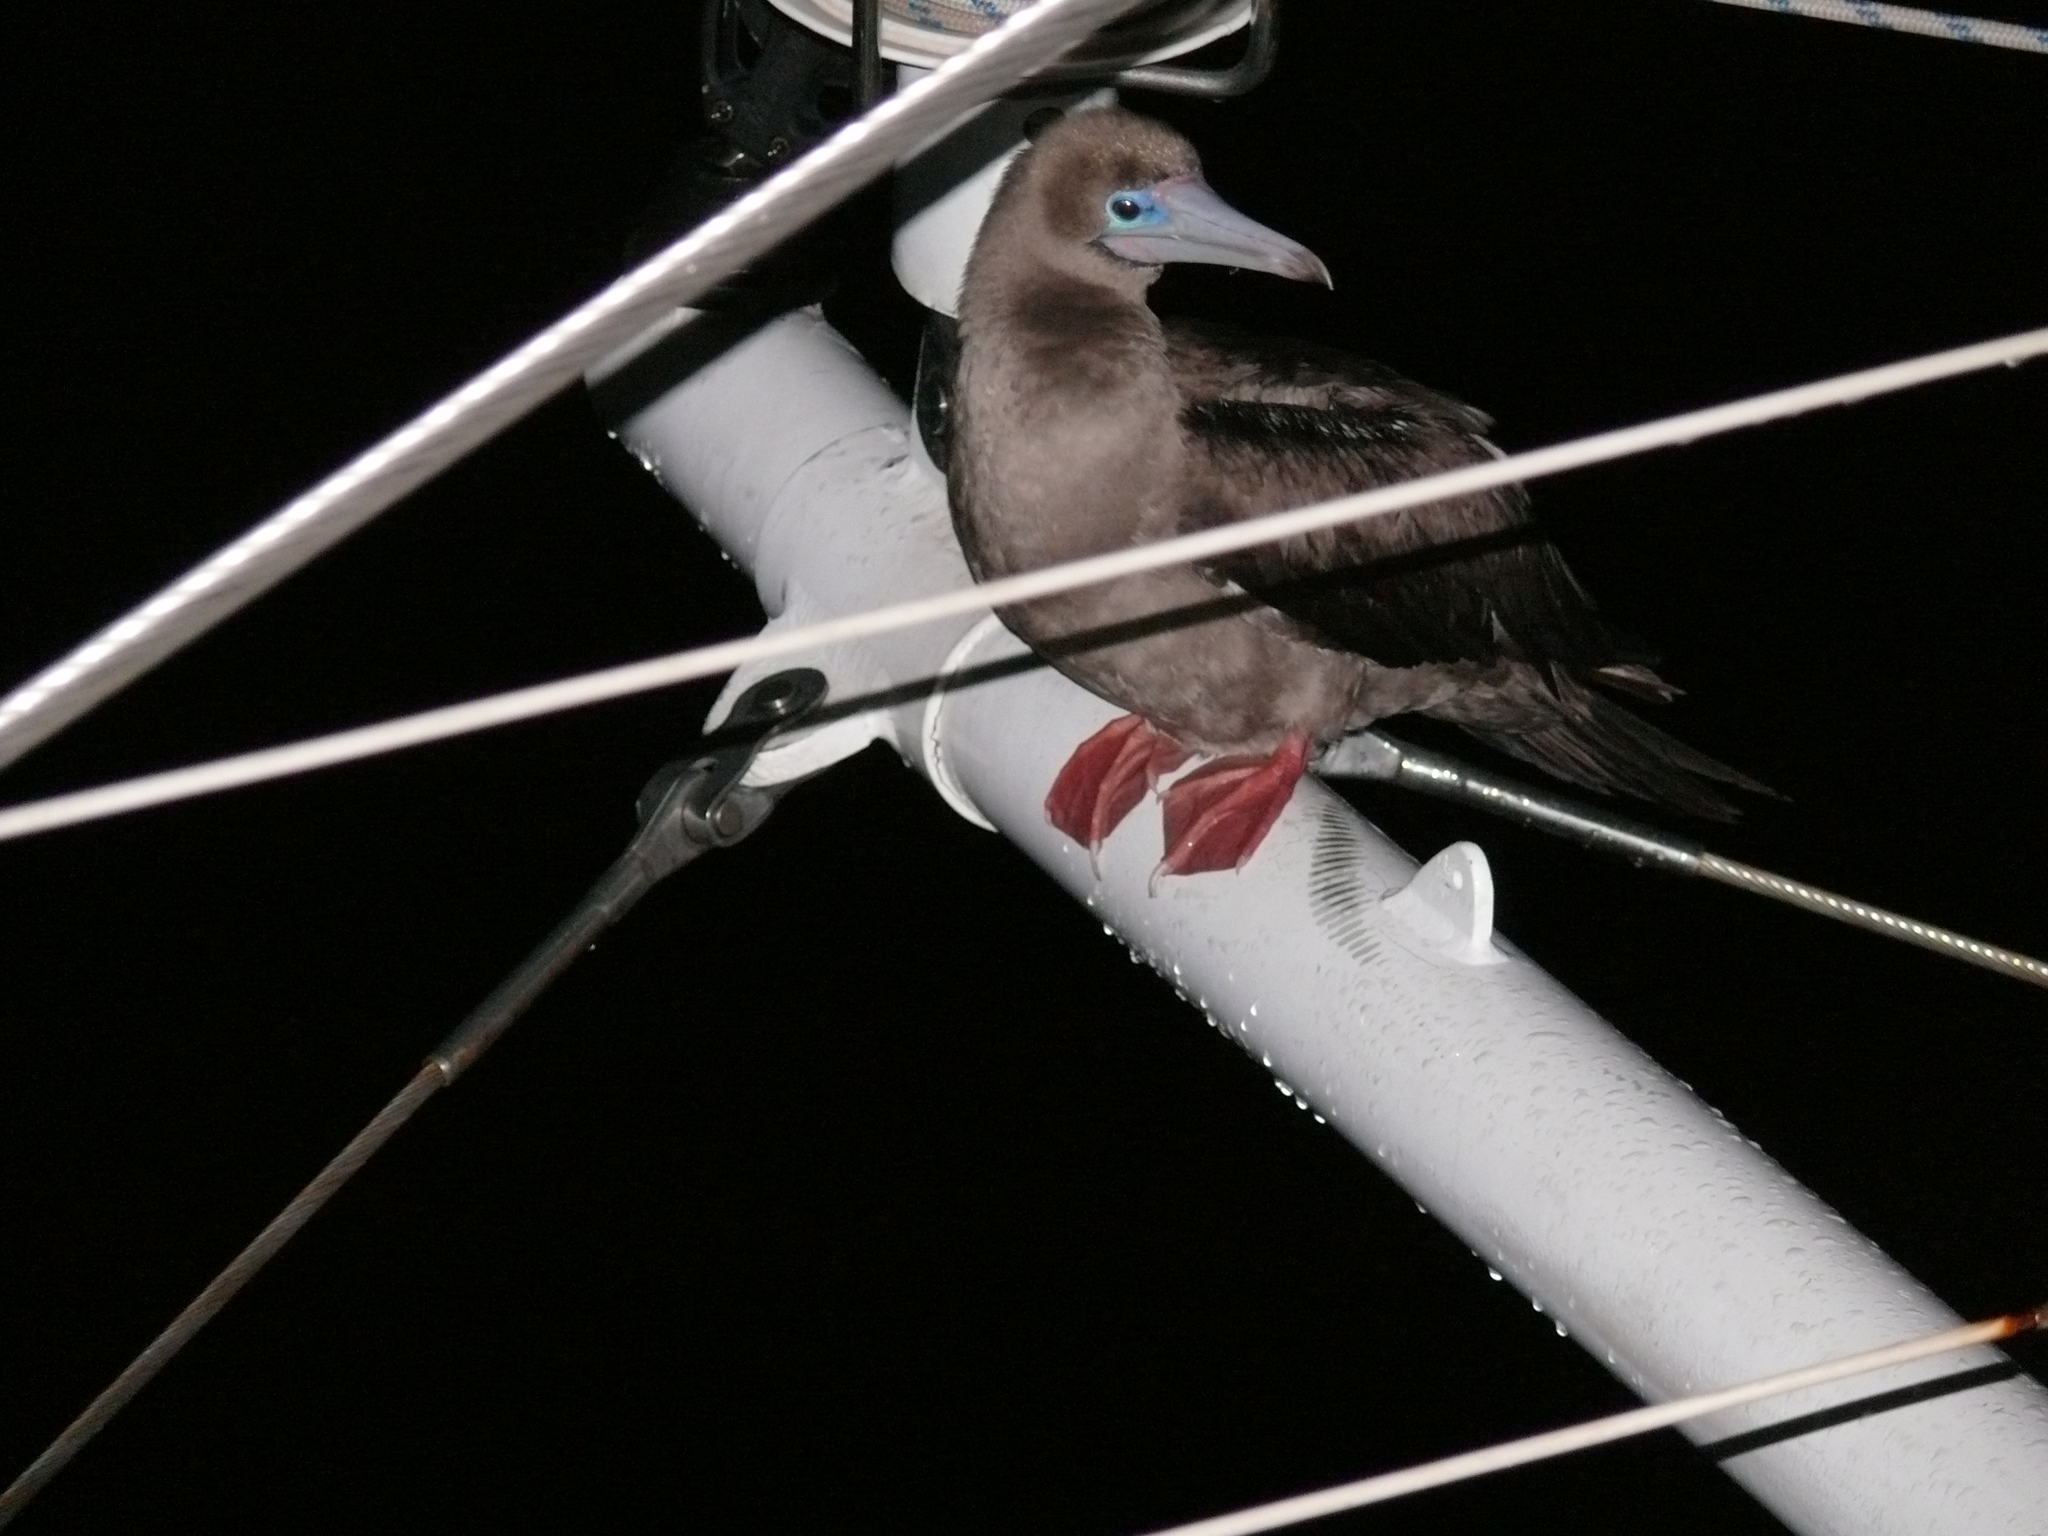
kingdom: Animalia
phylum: Chordata
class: Aves
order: Suliformes
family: Sulidae
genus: Sula
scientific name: Sula sula
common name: Red-footed booby
